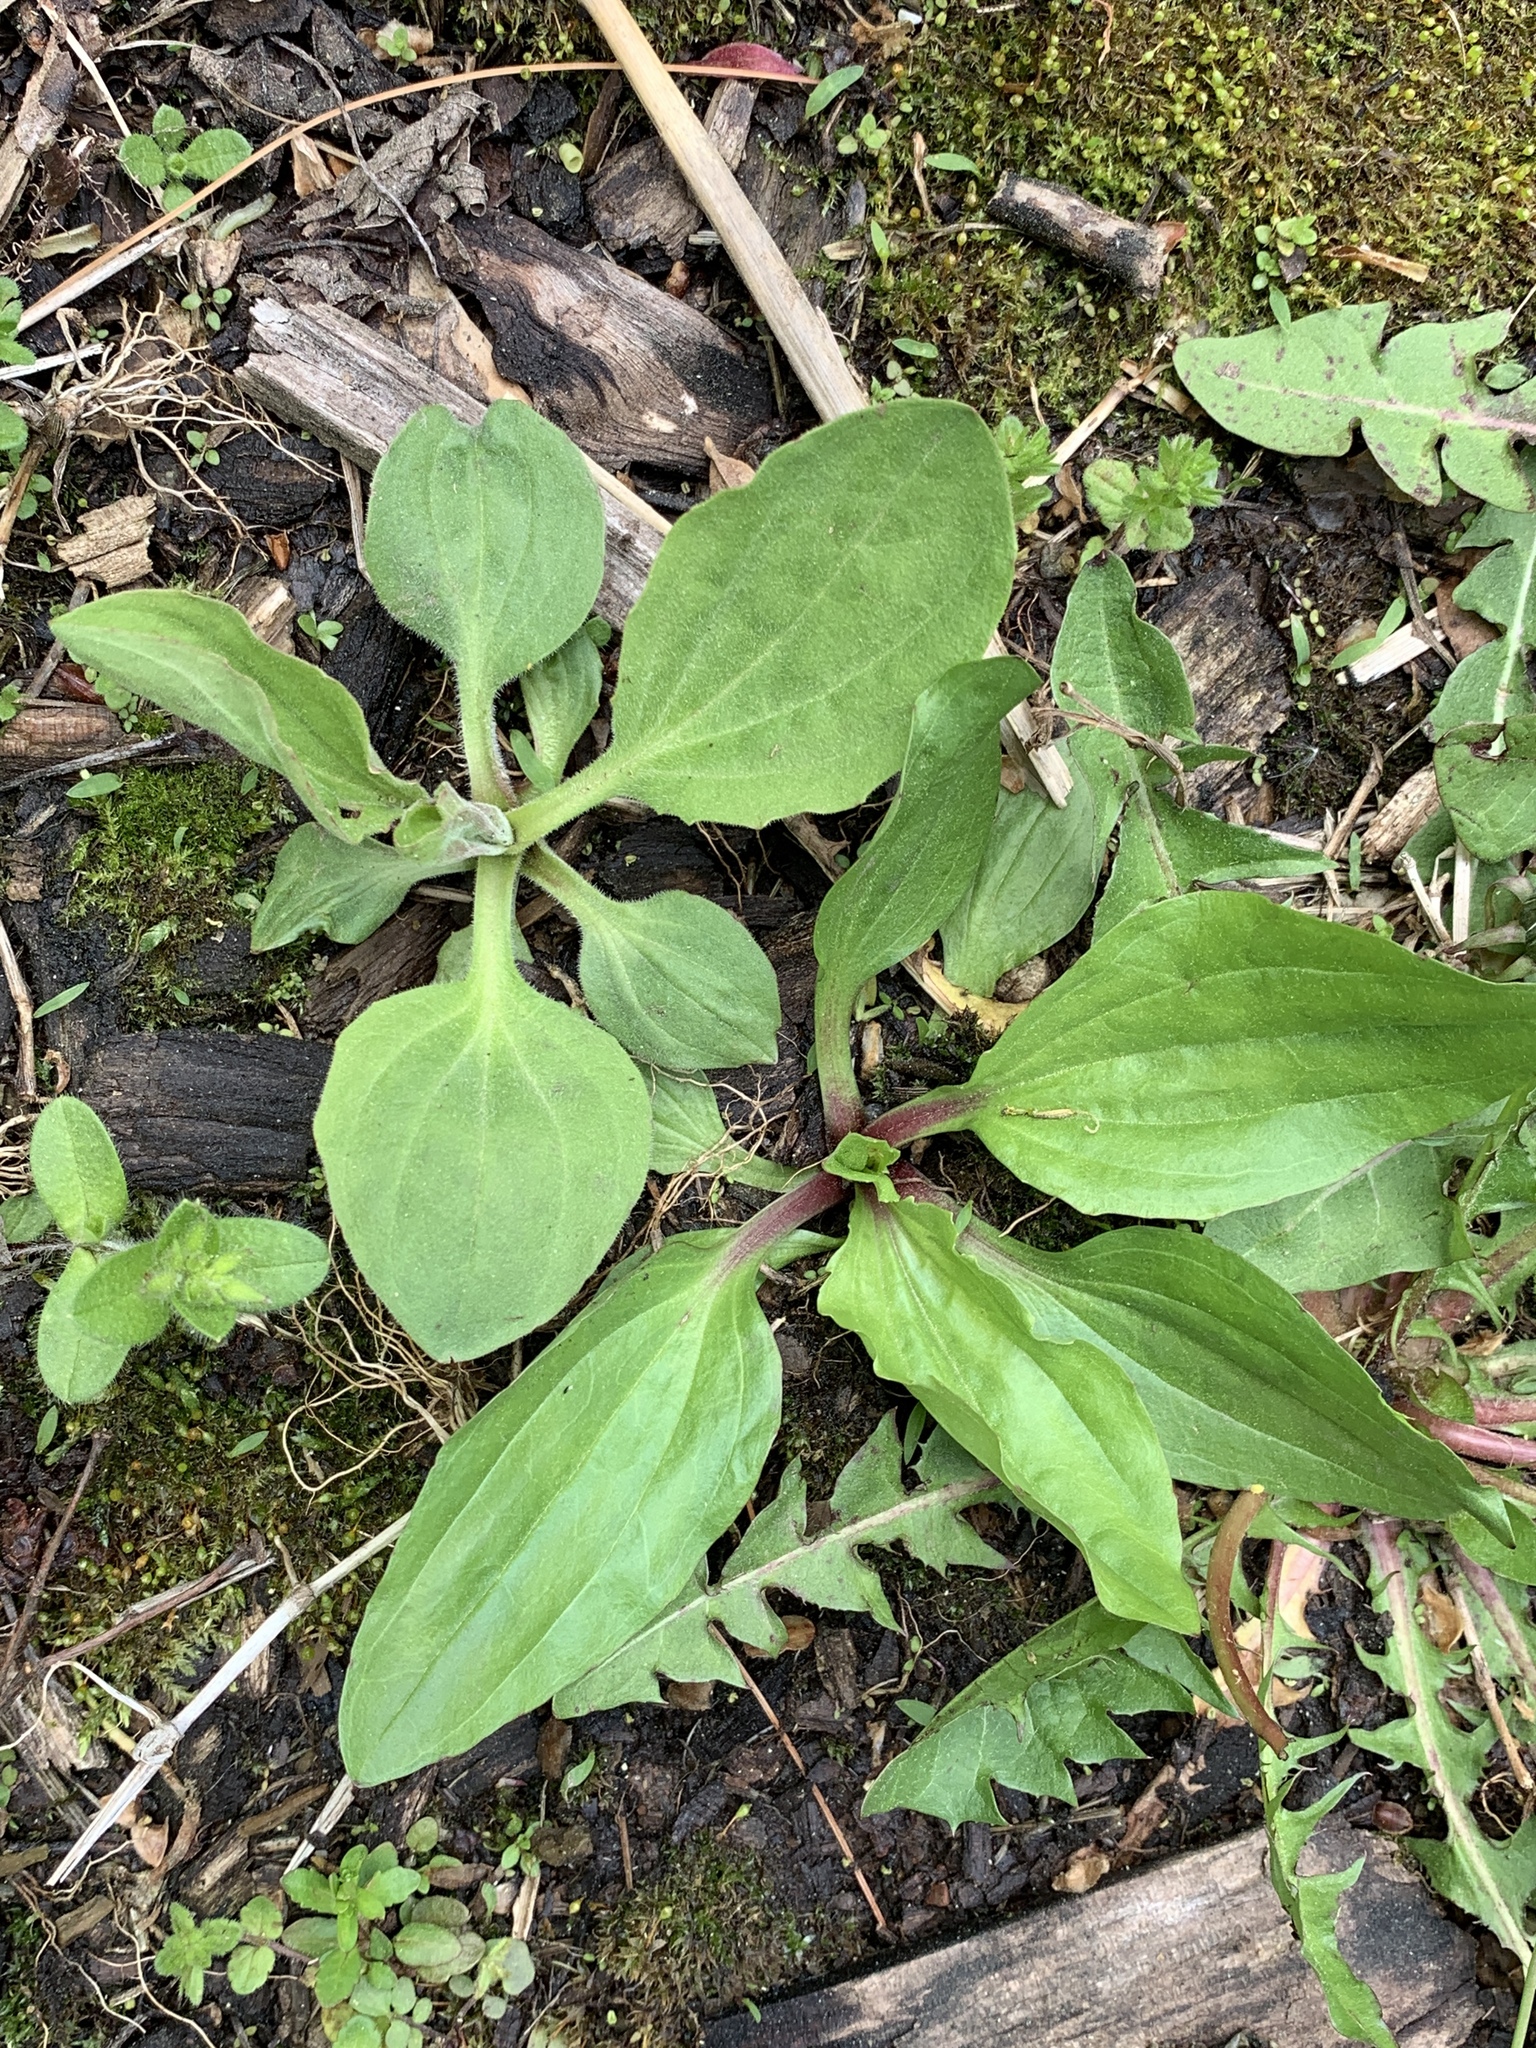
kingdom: Plantae
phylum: Tracheophyta
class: Magnoliopsida
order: Lamiales
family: Plantaginaceae
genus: Plantago
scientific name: Plantago rugelii
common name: American plantain
